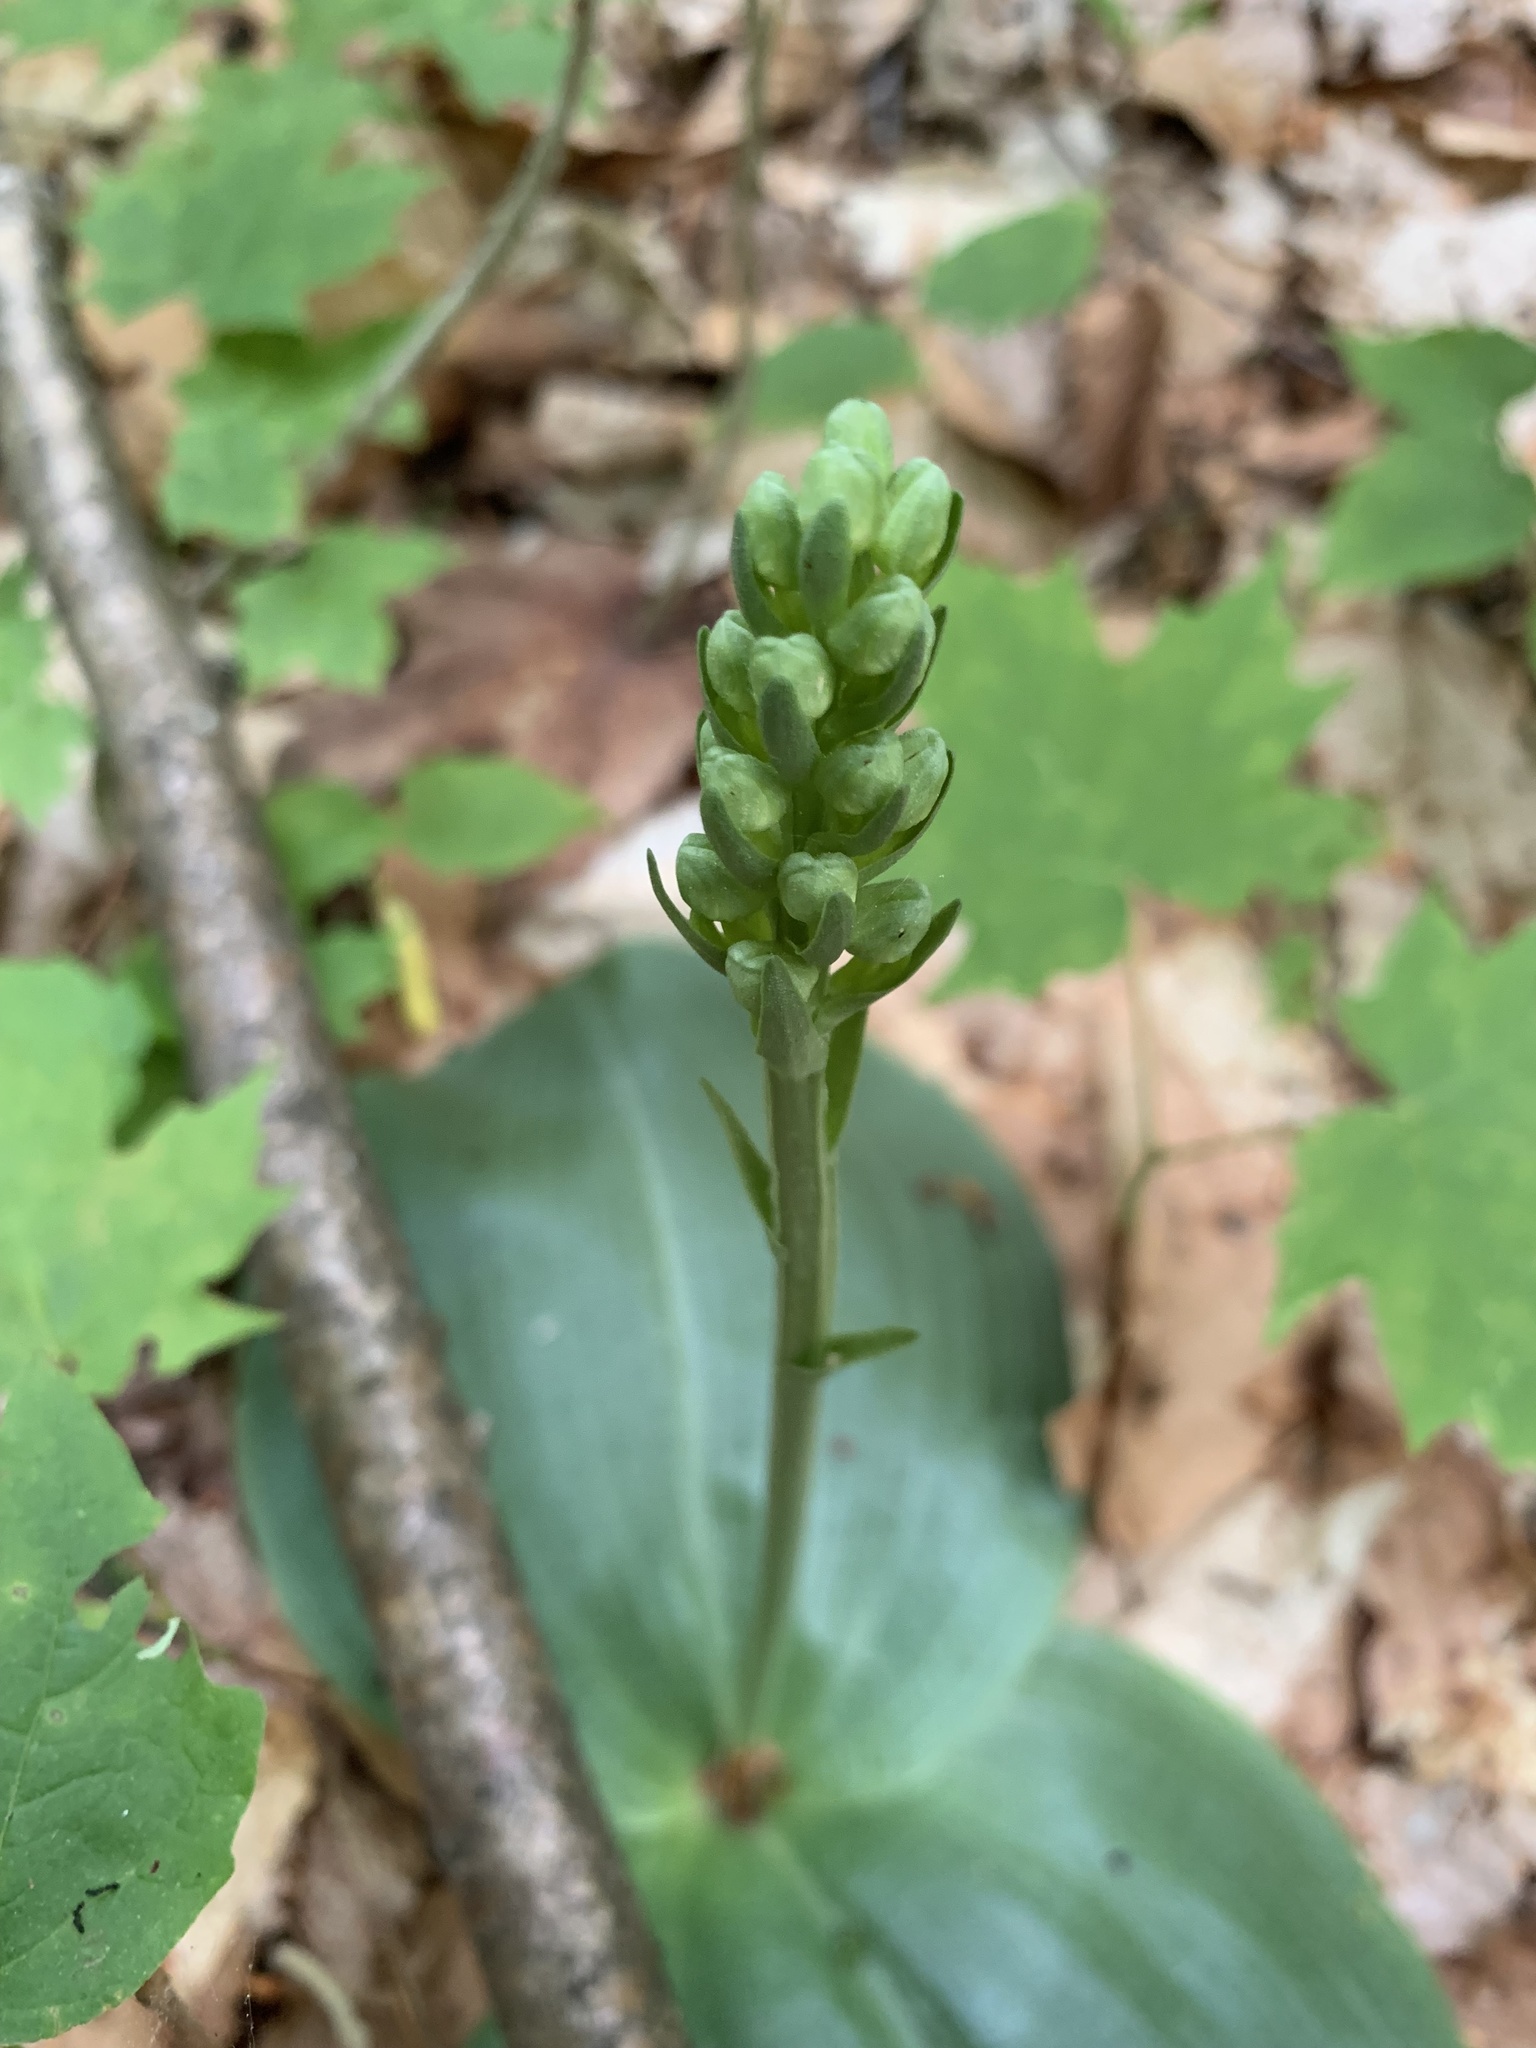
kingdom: Plantae
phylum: Tracheophyta
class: Liliopsida
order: Asparagales
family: Orchidaceae
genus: Platanthera
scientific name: Platanthera orbiculata
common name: Large round-leaved orchid
